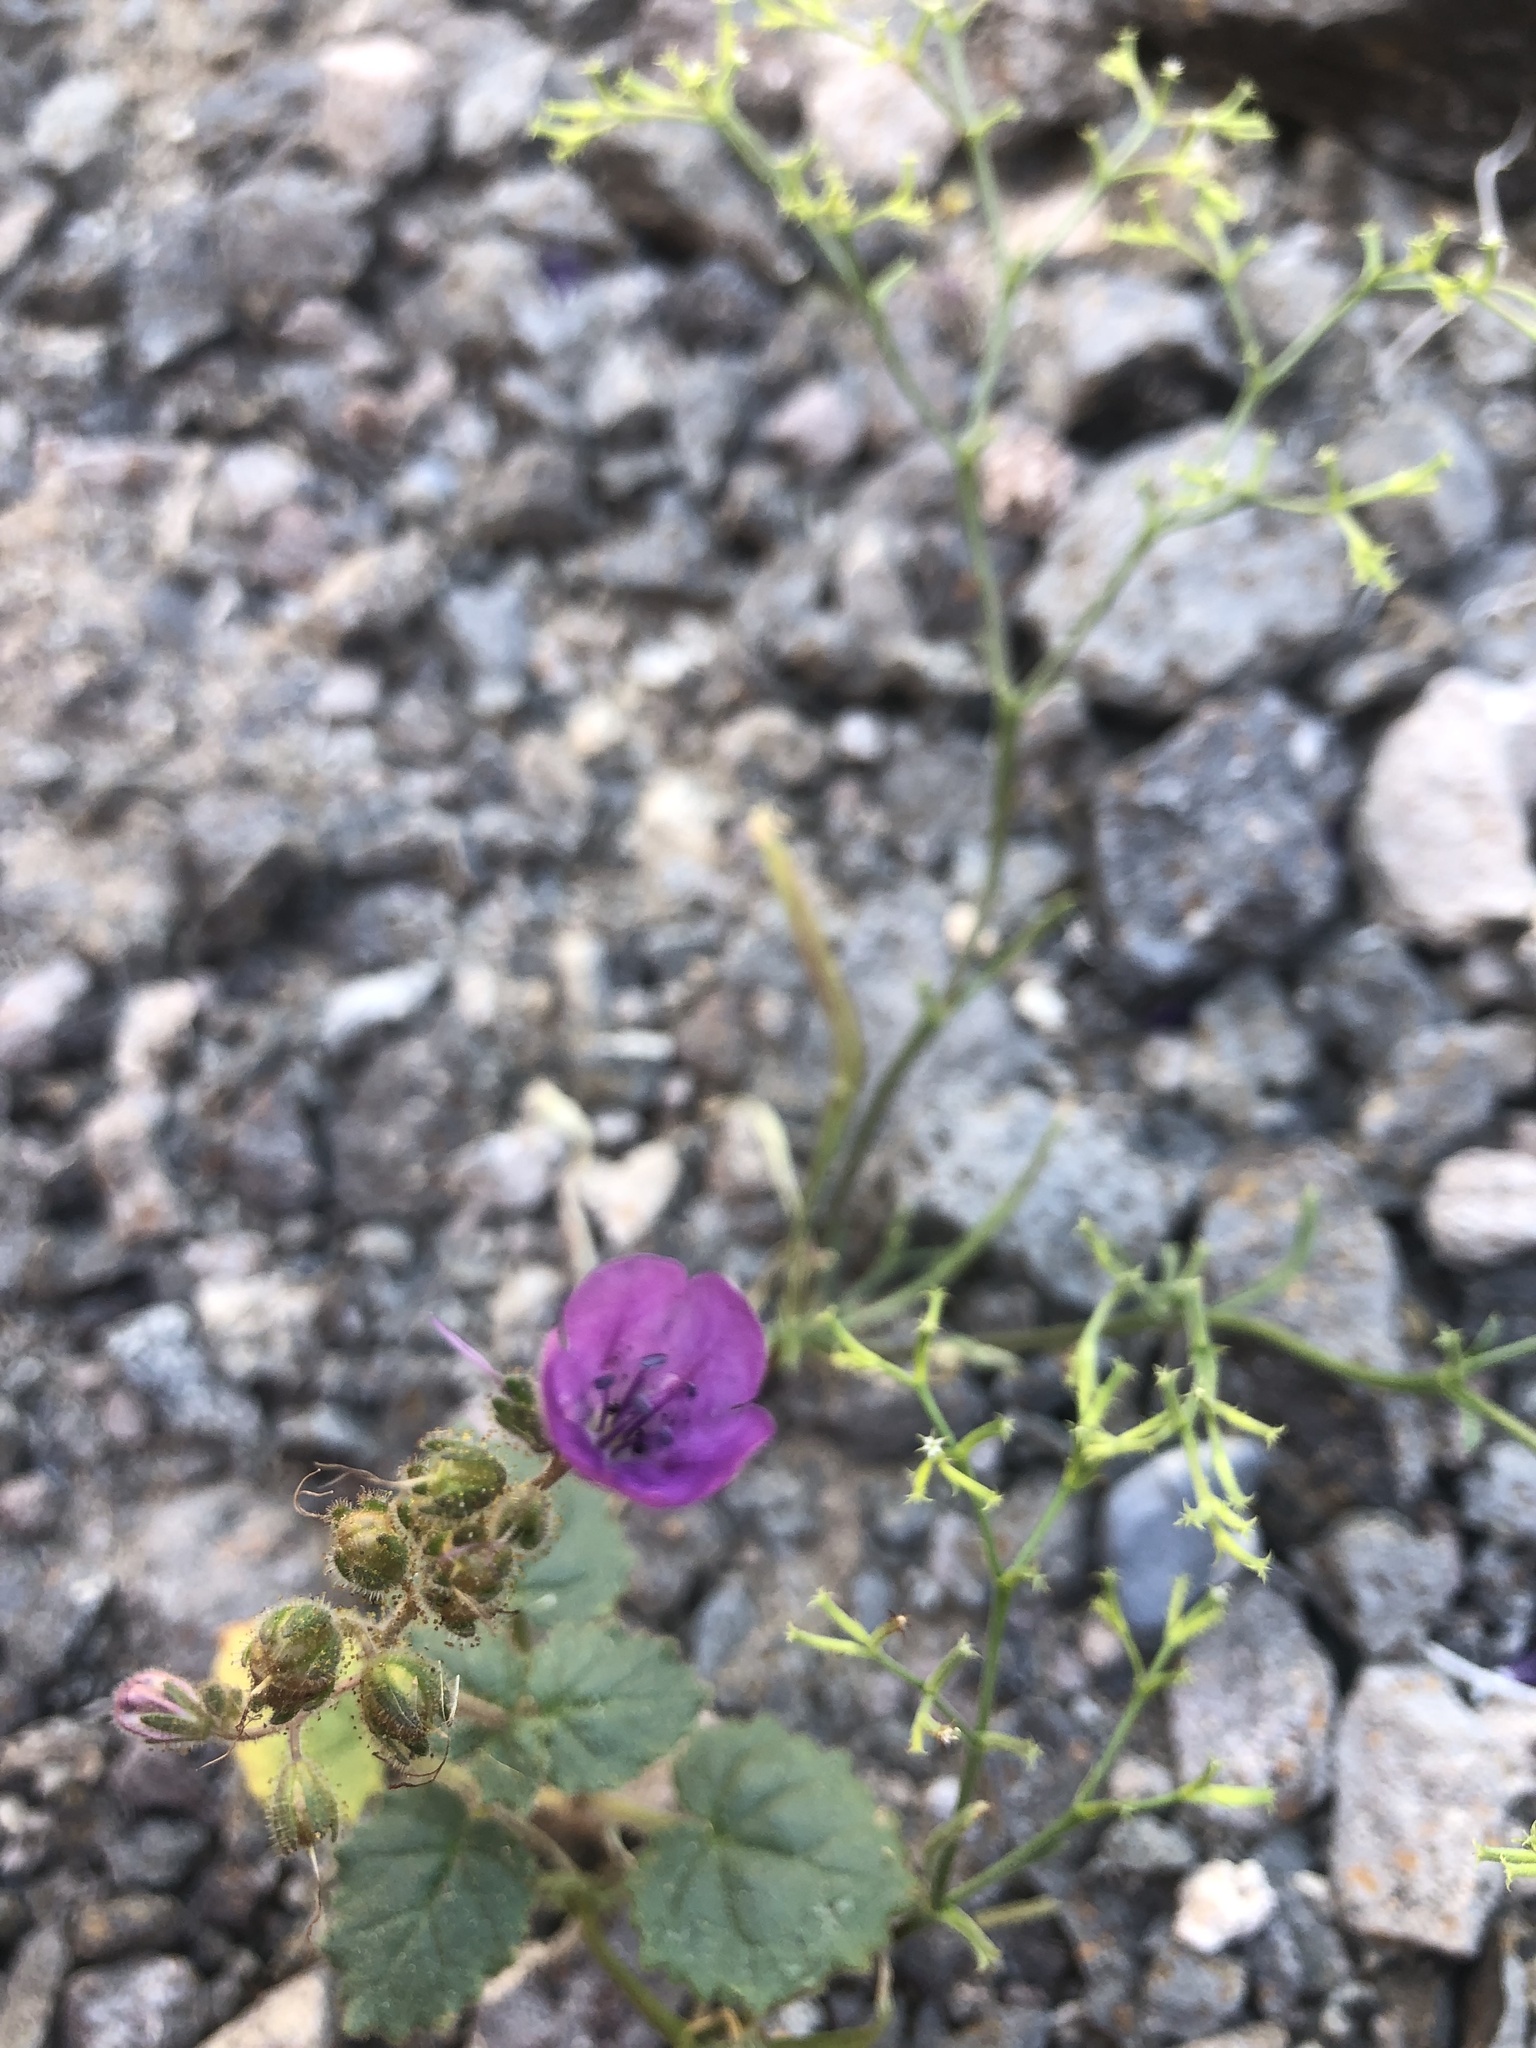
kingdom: Plantae
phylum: Tracheophyta
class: Magnoliopsida
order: Boraginales
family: Hydrophyllaceae
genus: Phacelia
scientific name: Phacelia calthifolia
